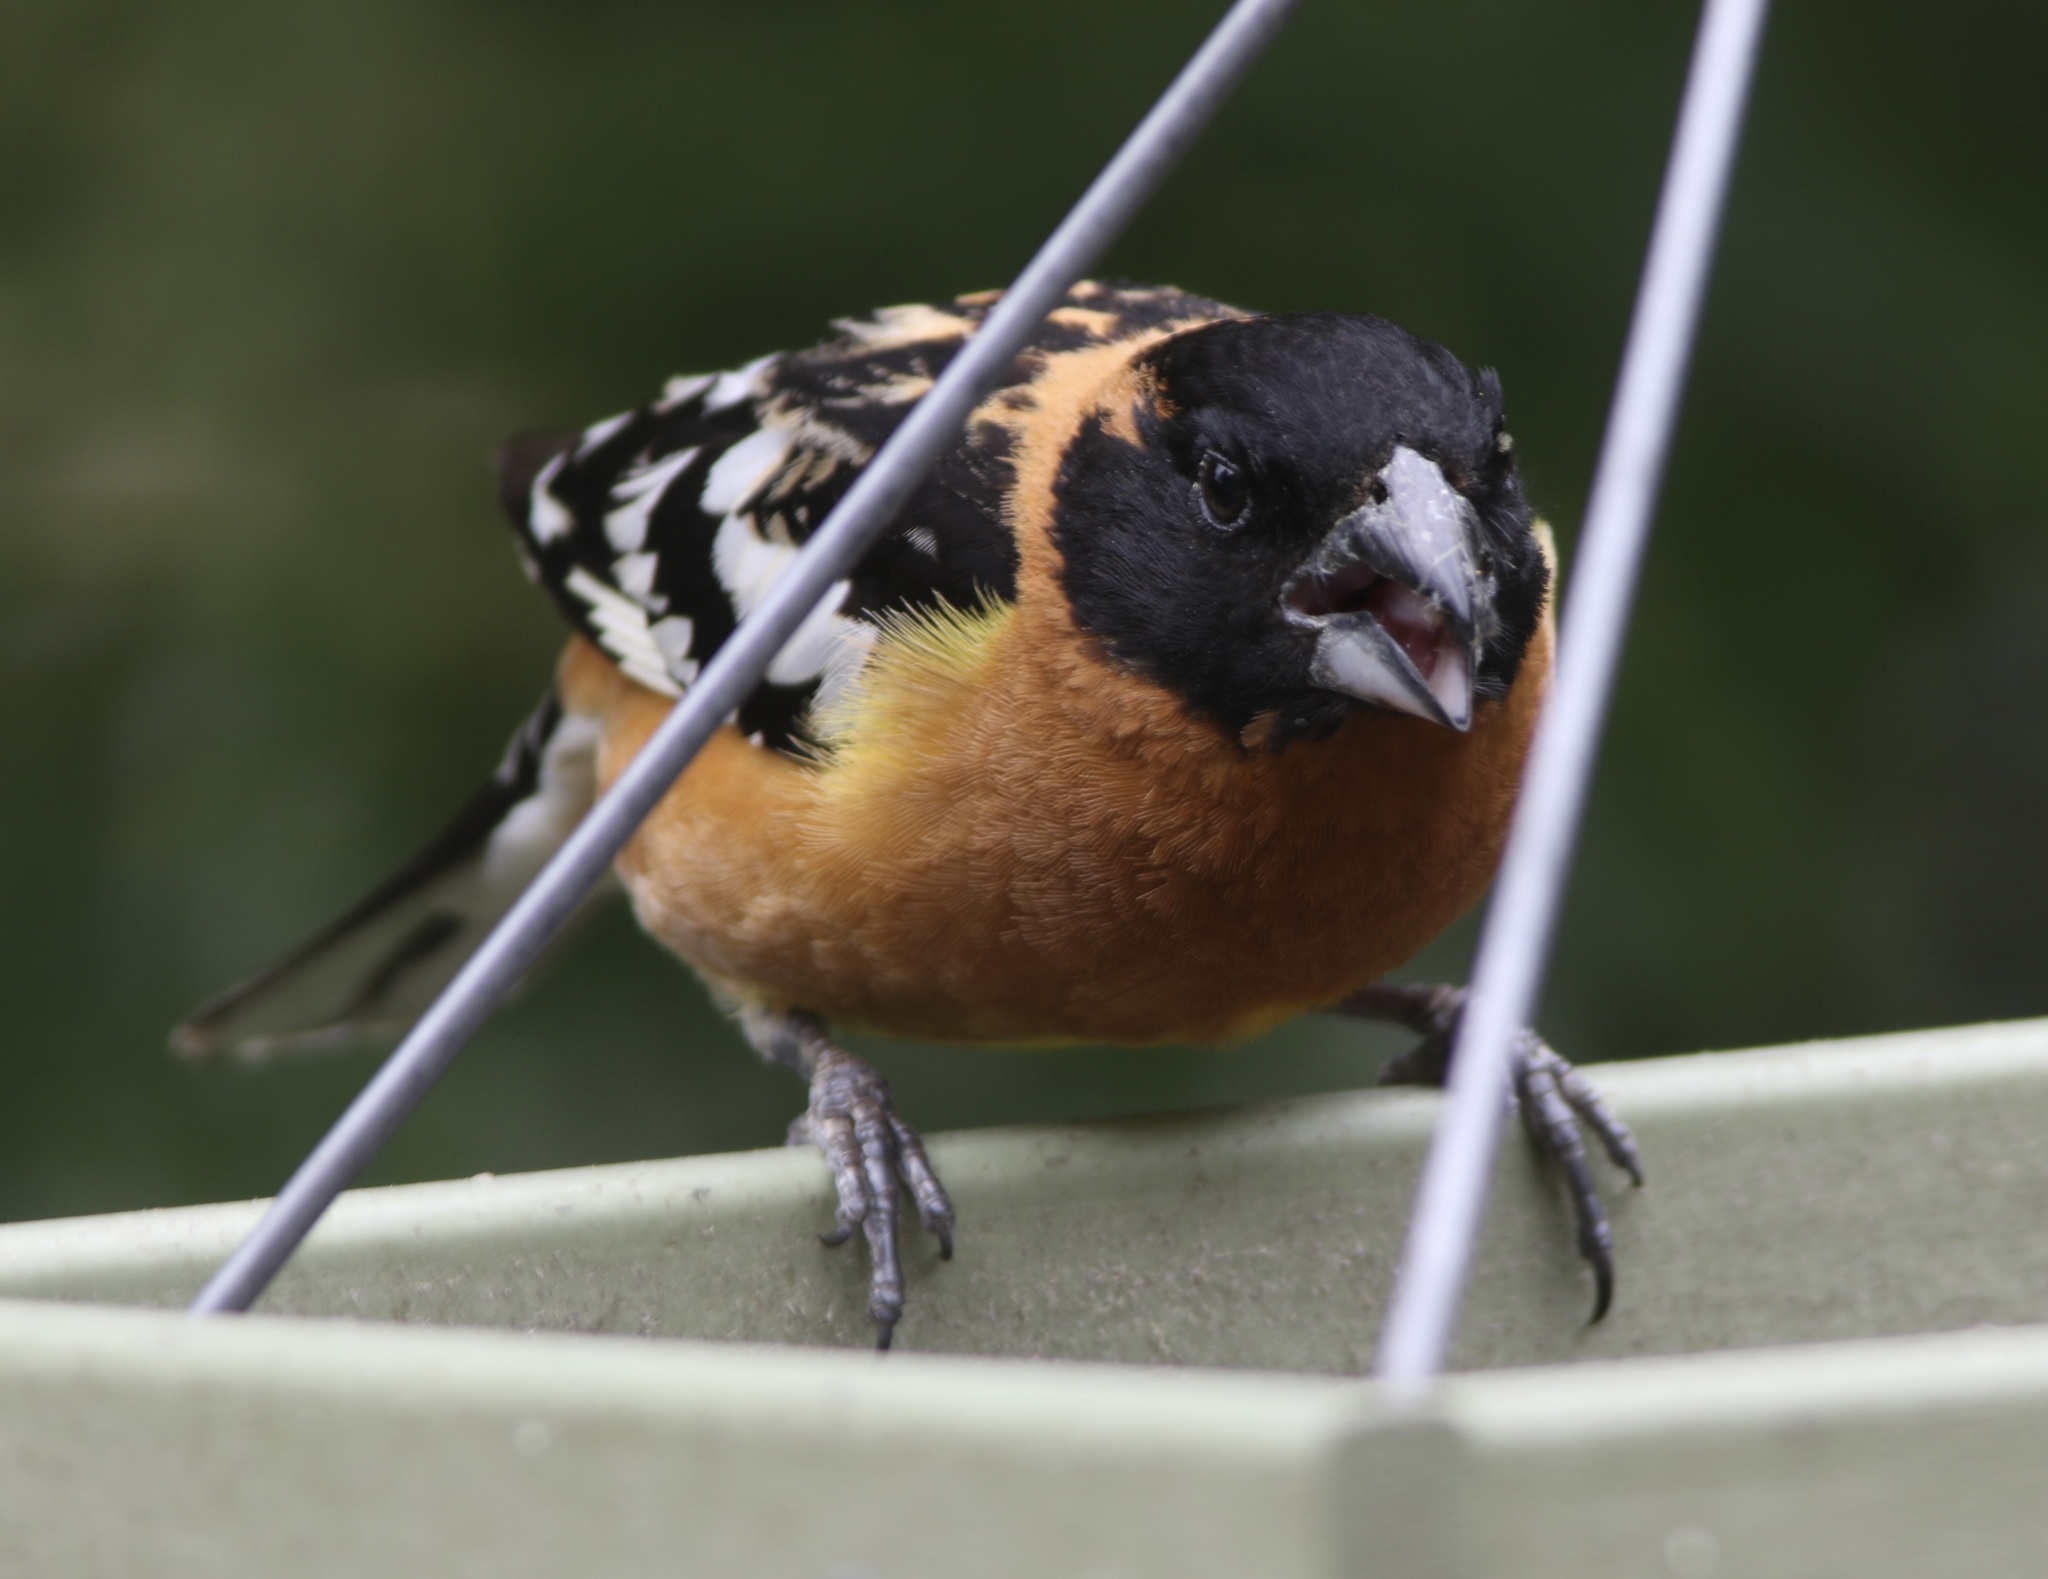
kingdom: Animalia
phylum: Chordata
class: Aves
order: Passeriformes
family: Cardinalidae
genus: Pheucticus
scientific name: Pheucticus melanocephalus
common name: Black-headed grosbeak
